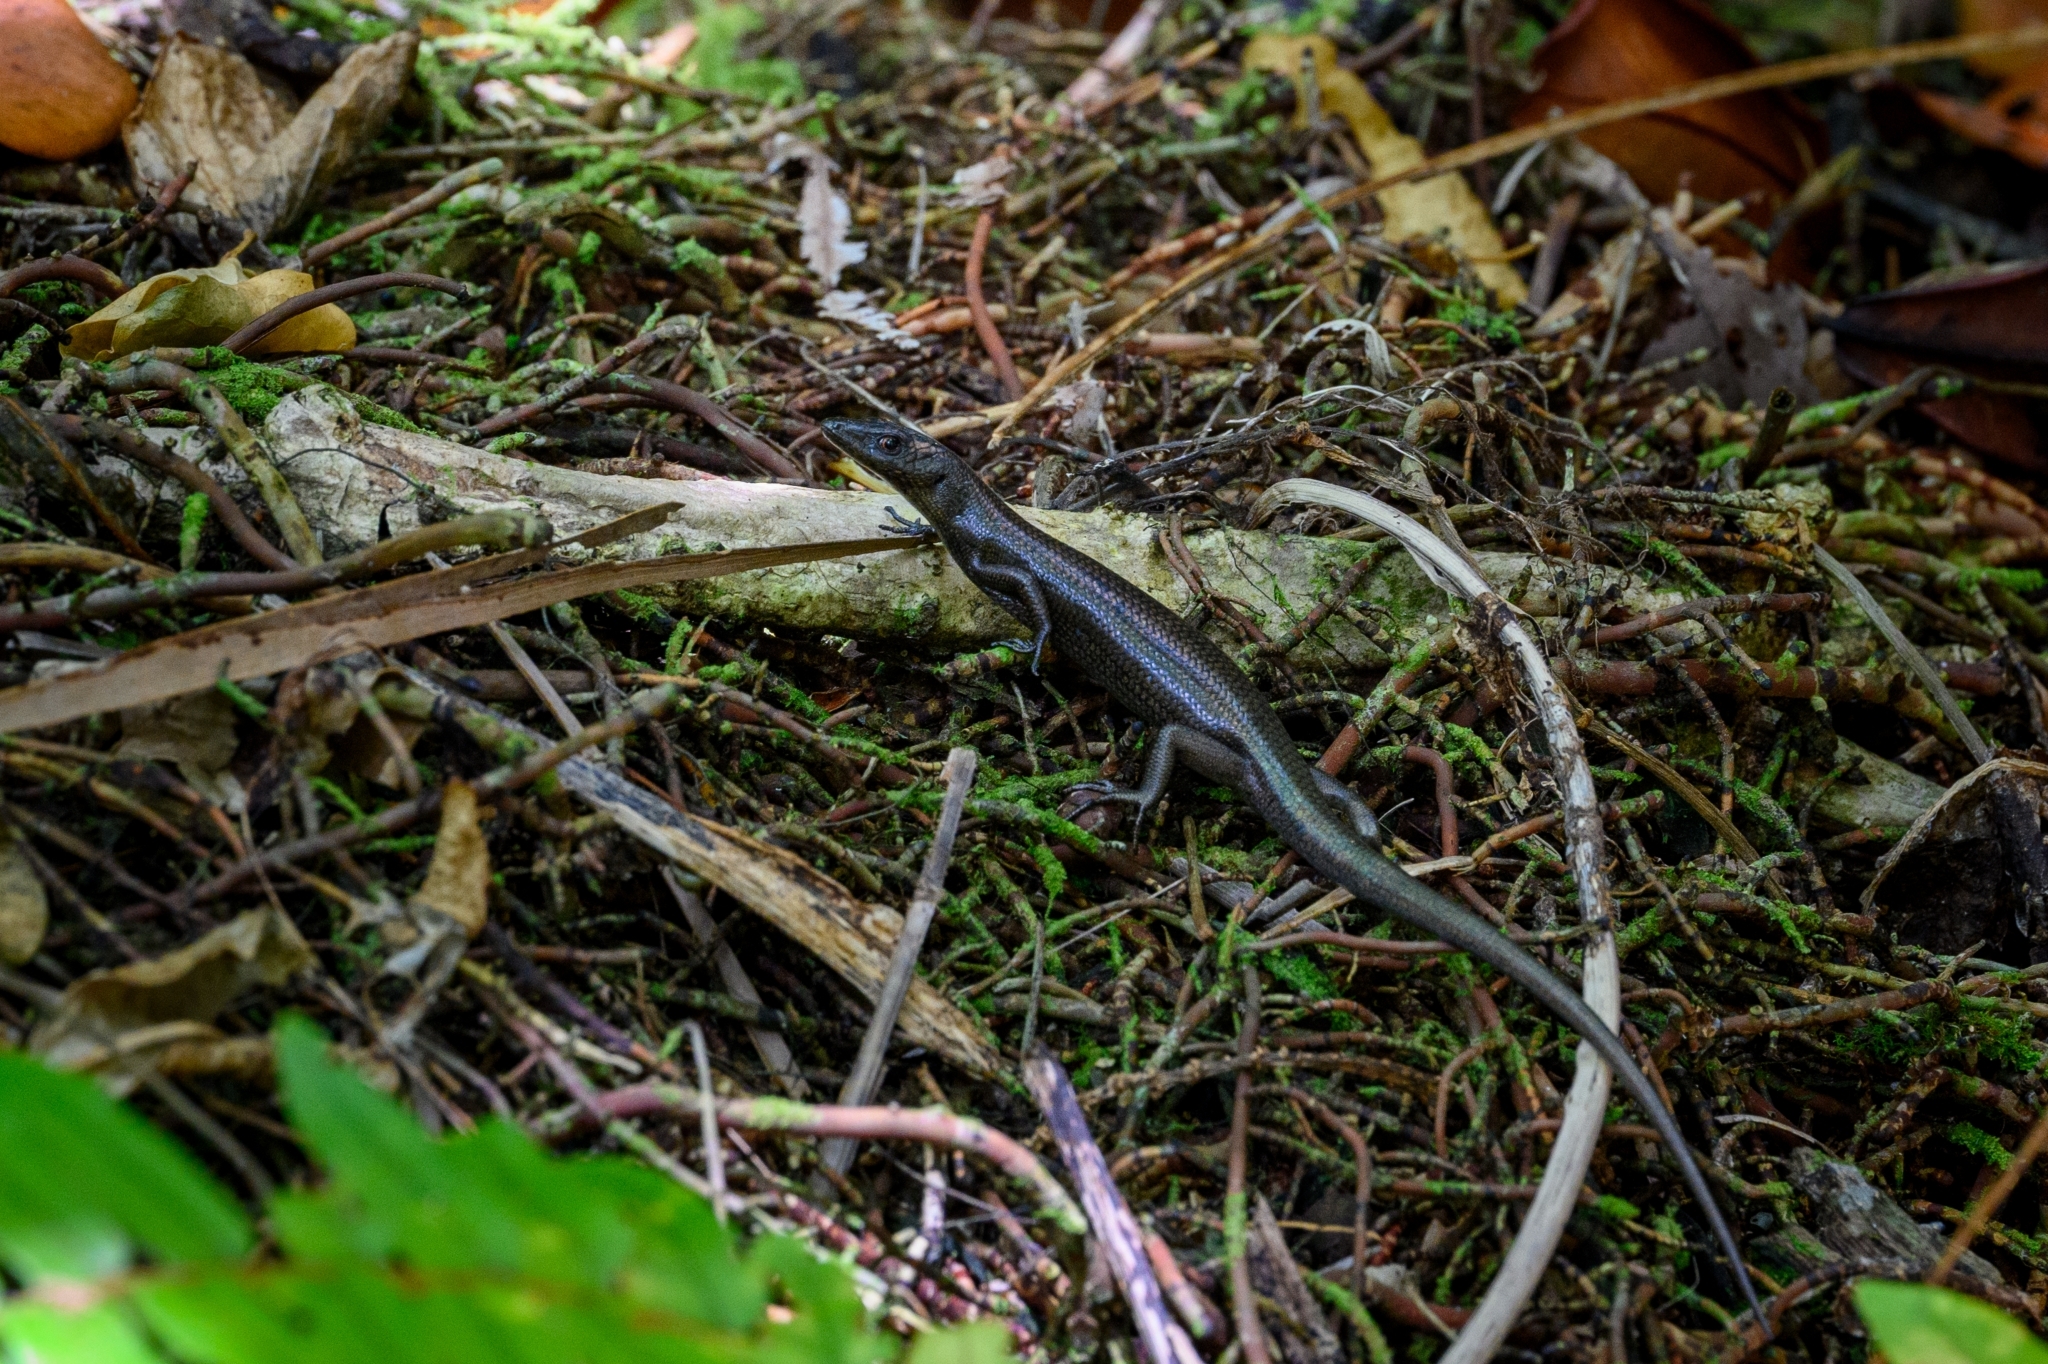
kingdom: Animalia
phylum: Chordata
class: Squamata
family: Scincidae
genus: Emoia
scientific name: Emoia nigra
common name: Black emo skink
